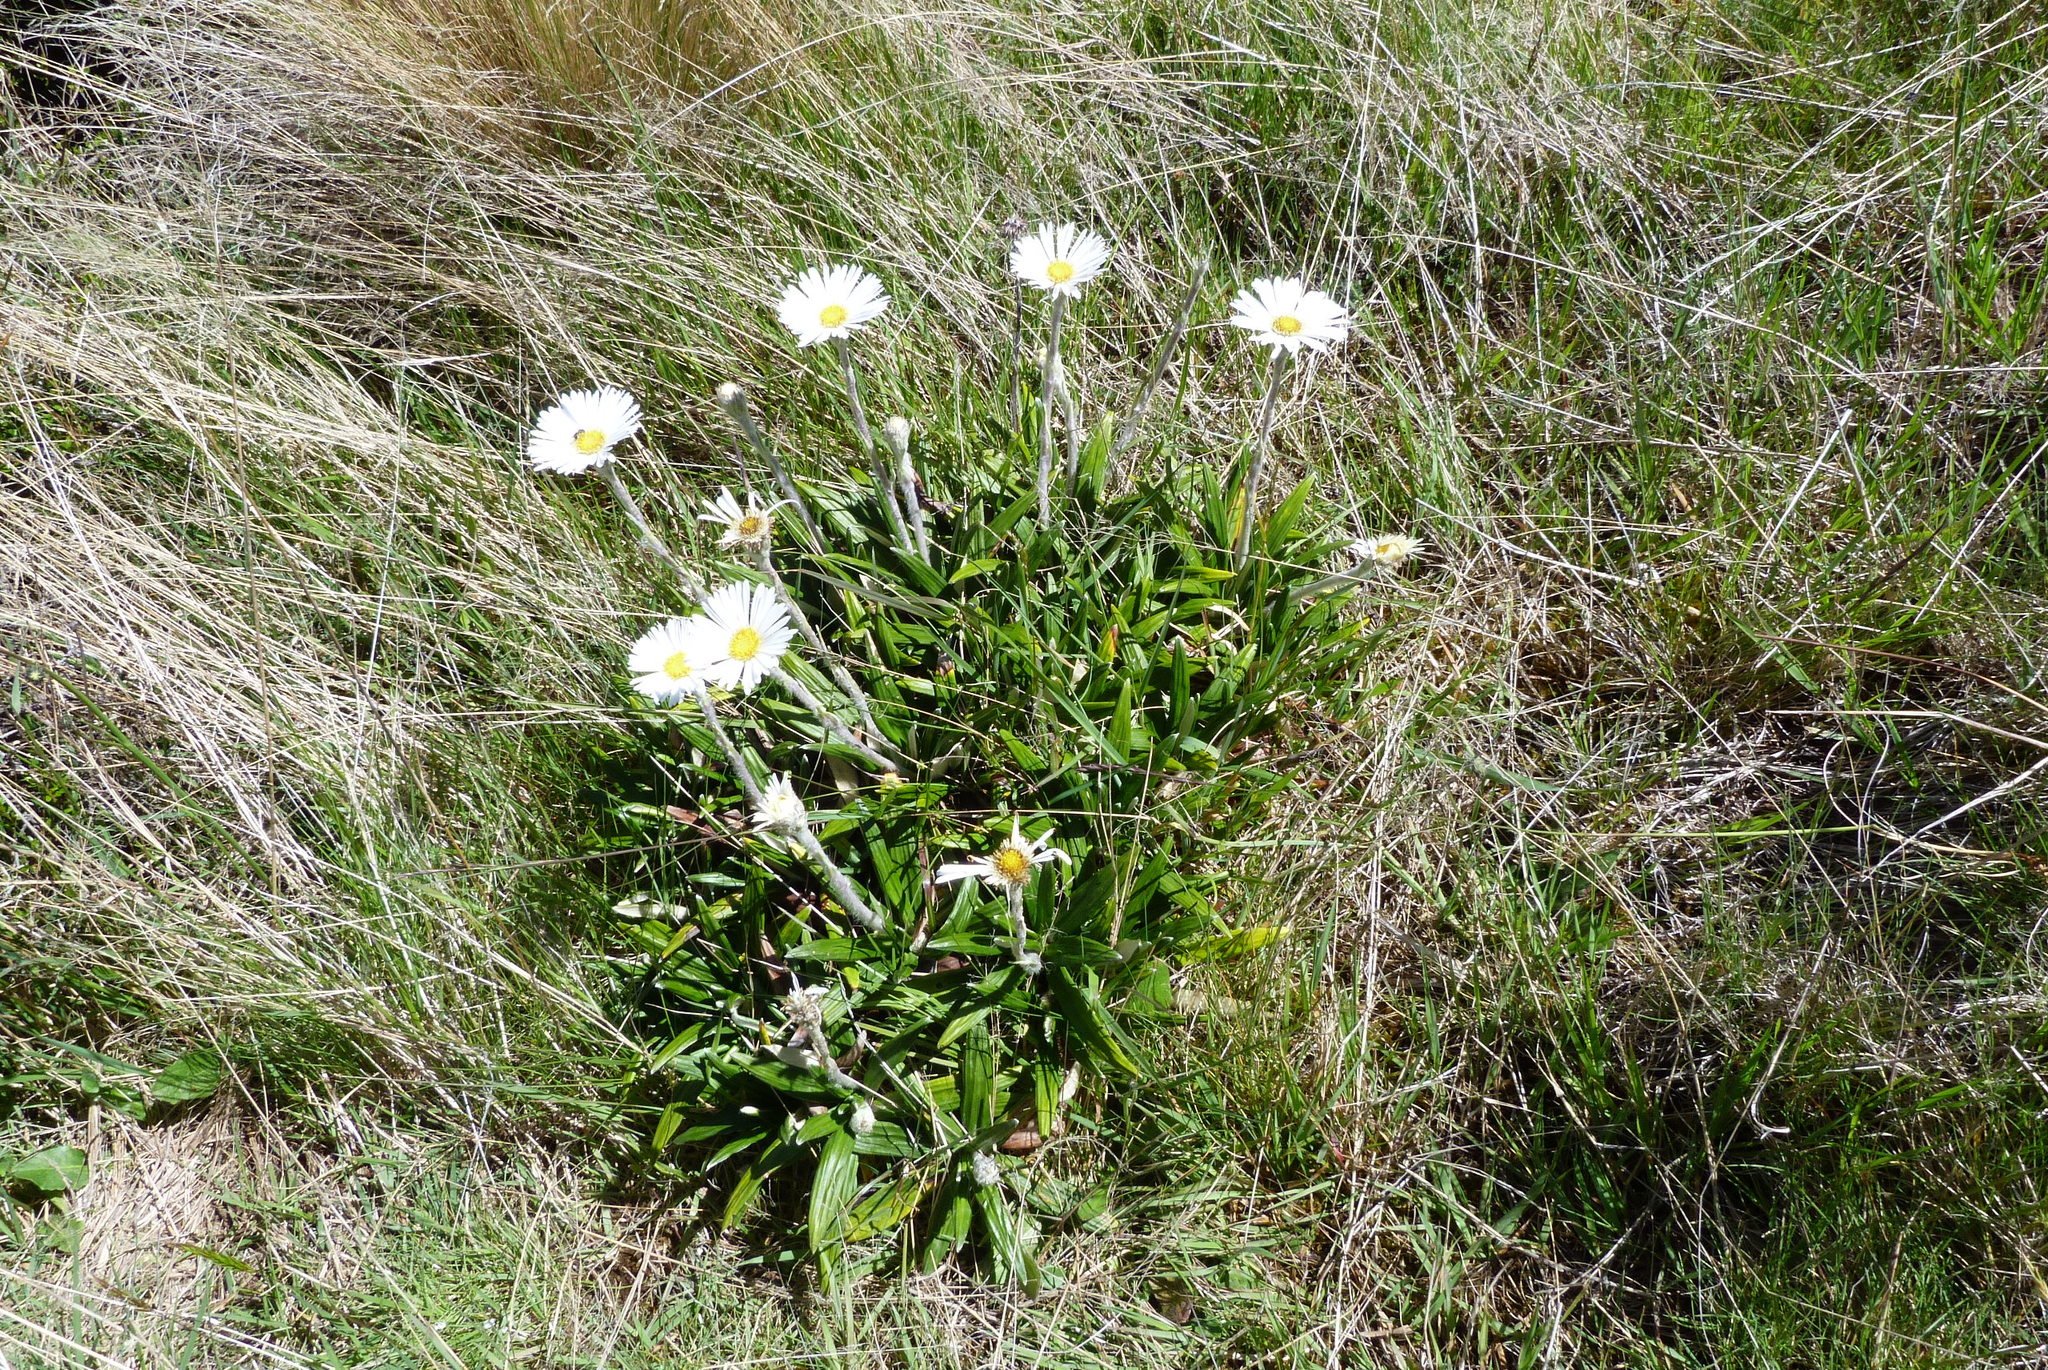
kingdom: Plantae
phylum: Tracheophyta
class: Magnoliopsida
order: Asterales
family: Asteraceae
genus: Celmisia
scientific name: Celmisia spectabilis
